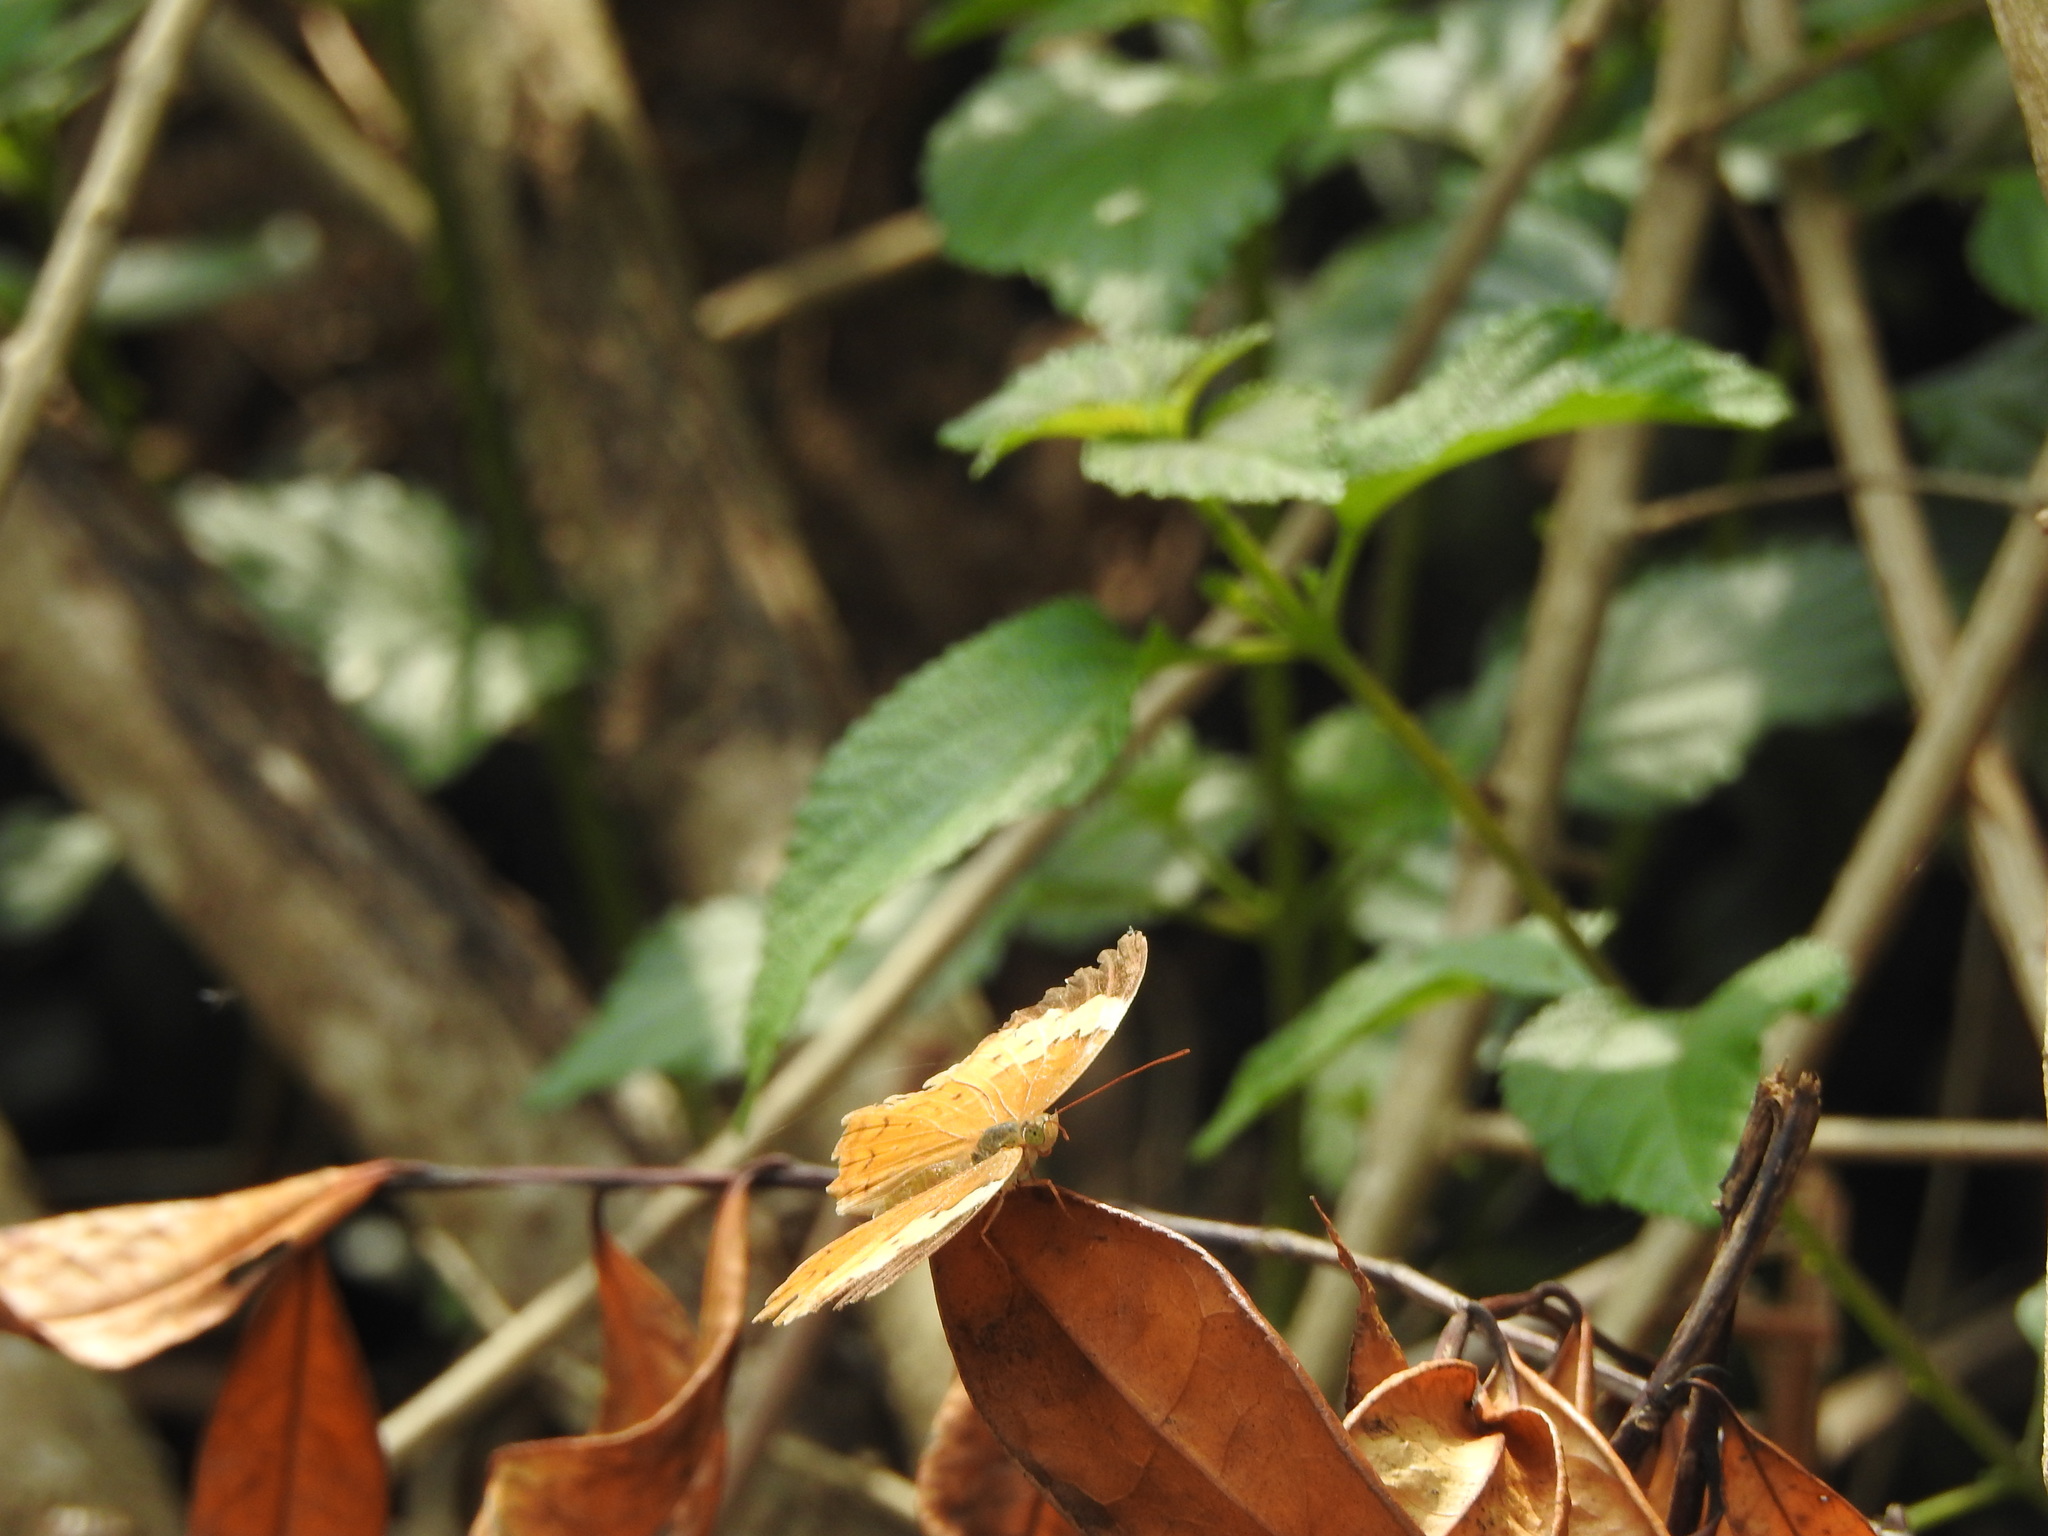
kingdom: Animalia
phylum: Arthropoda
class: Insecta
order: Lepidoptera
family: Nymphalidae
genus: Cupha
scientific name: Cupha erymanthis
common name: Rustic
